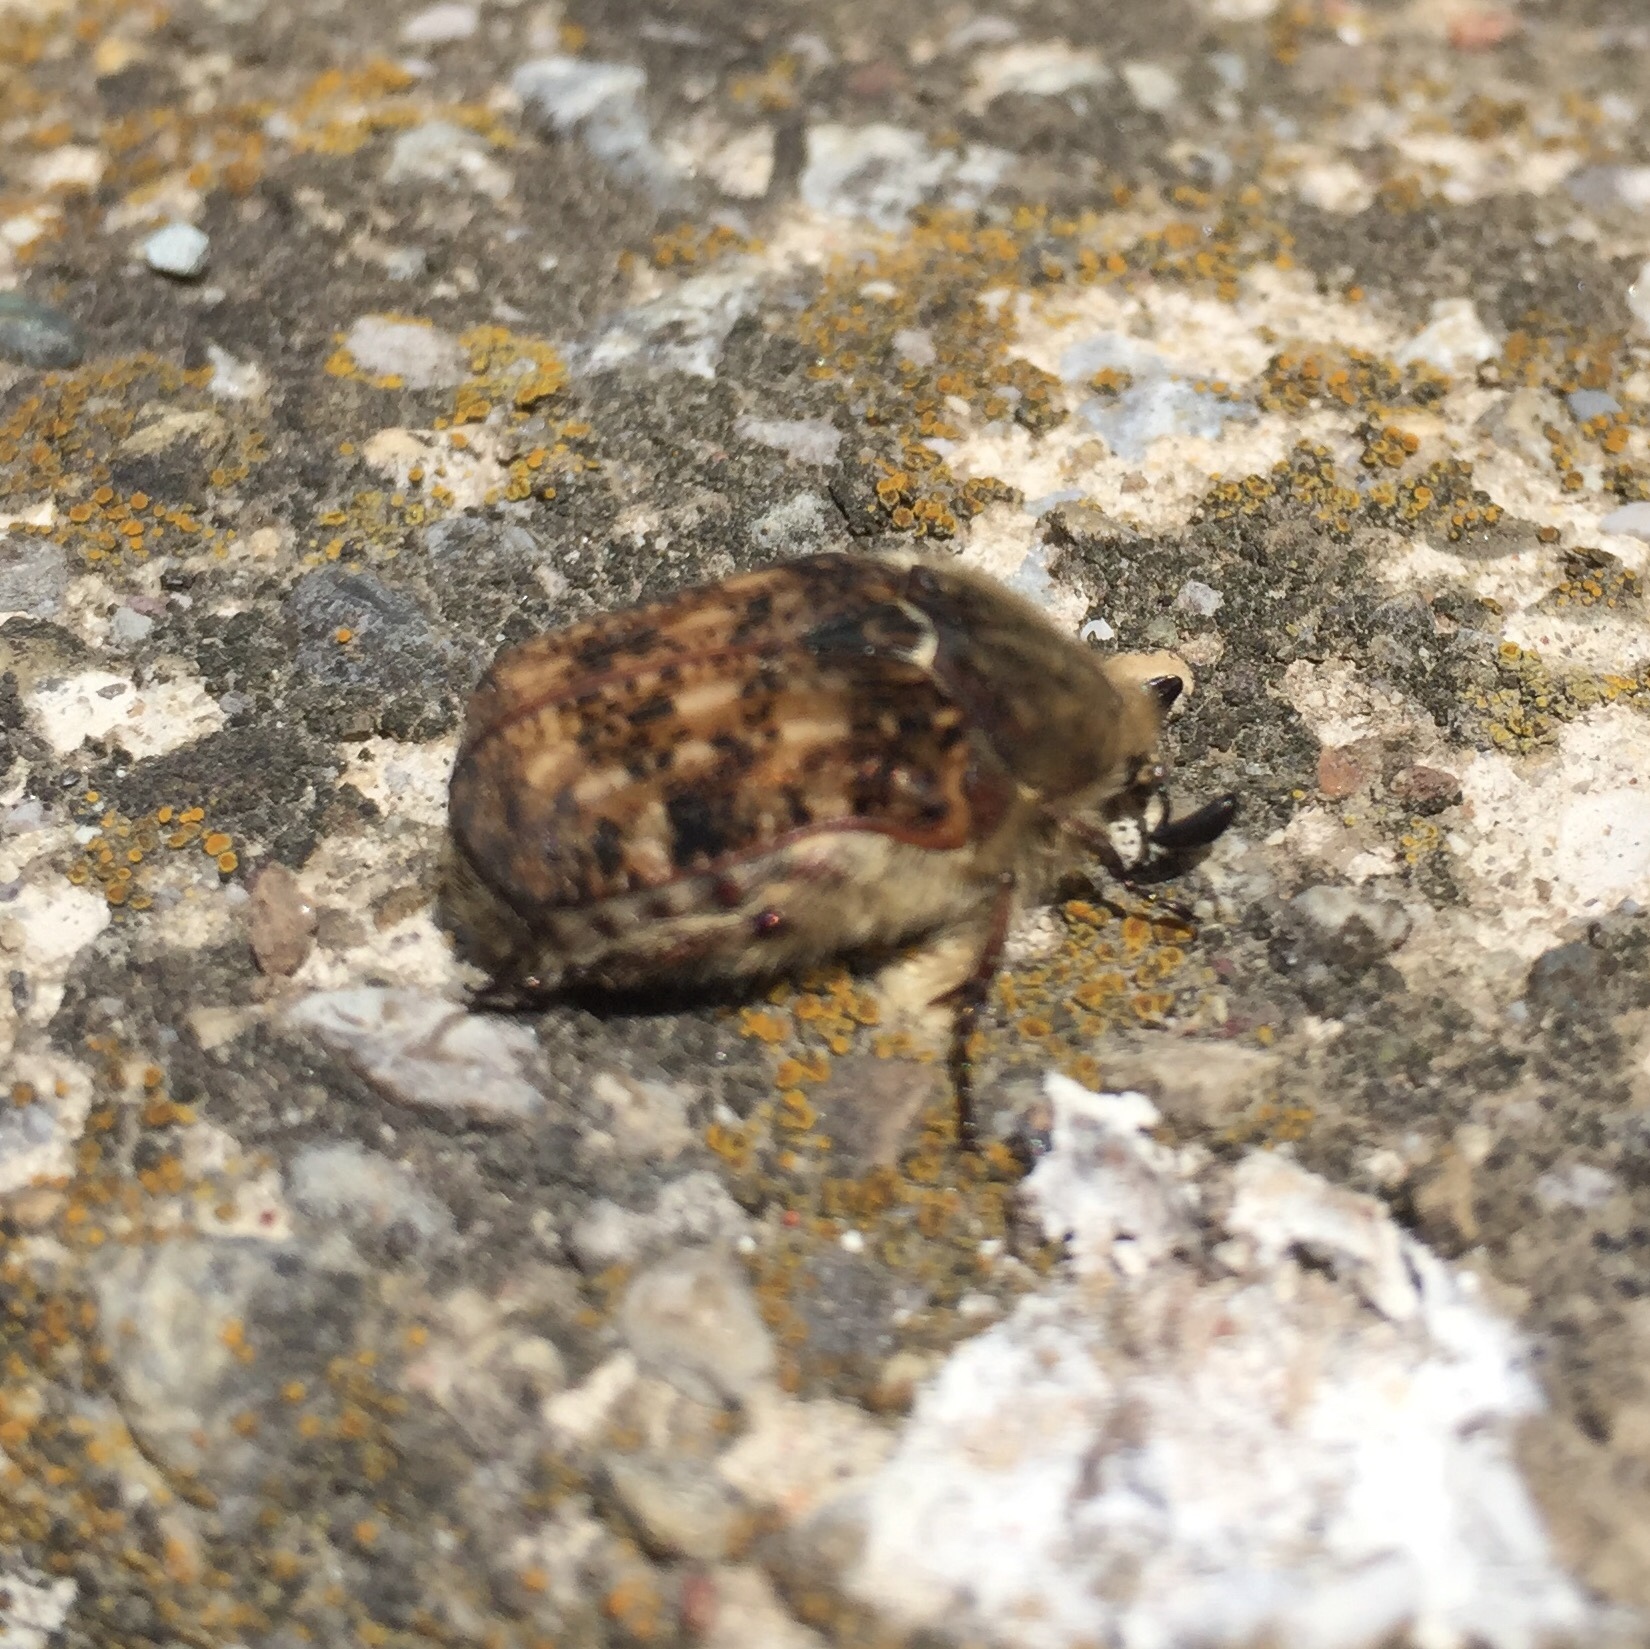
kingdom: Animalia
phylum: Arthropoda
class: Insecta
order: Coleoptera
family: Scarabaeidae
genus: Euphoria
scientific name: Euphoria inda
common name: Bumble flower beetle
